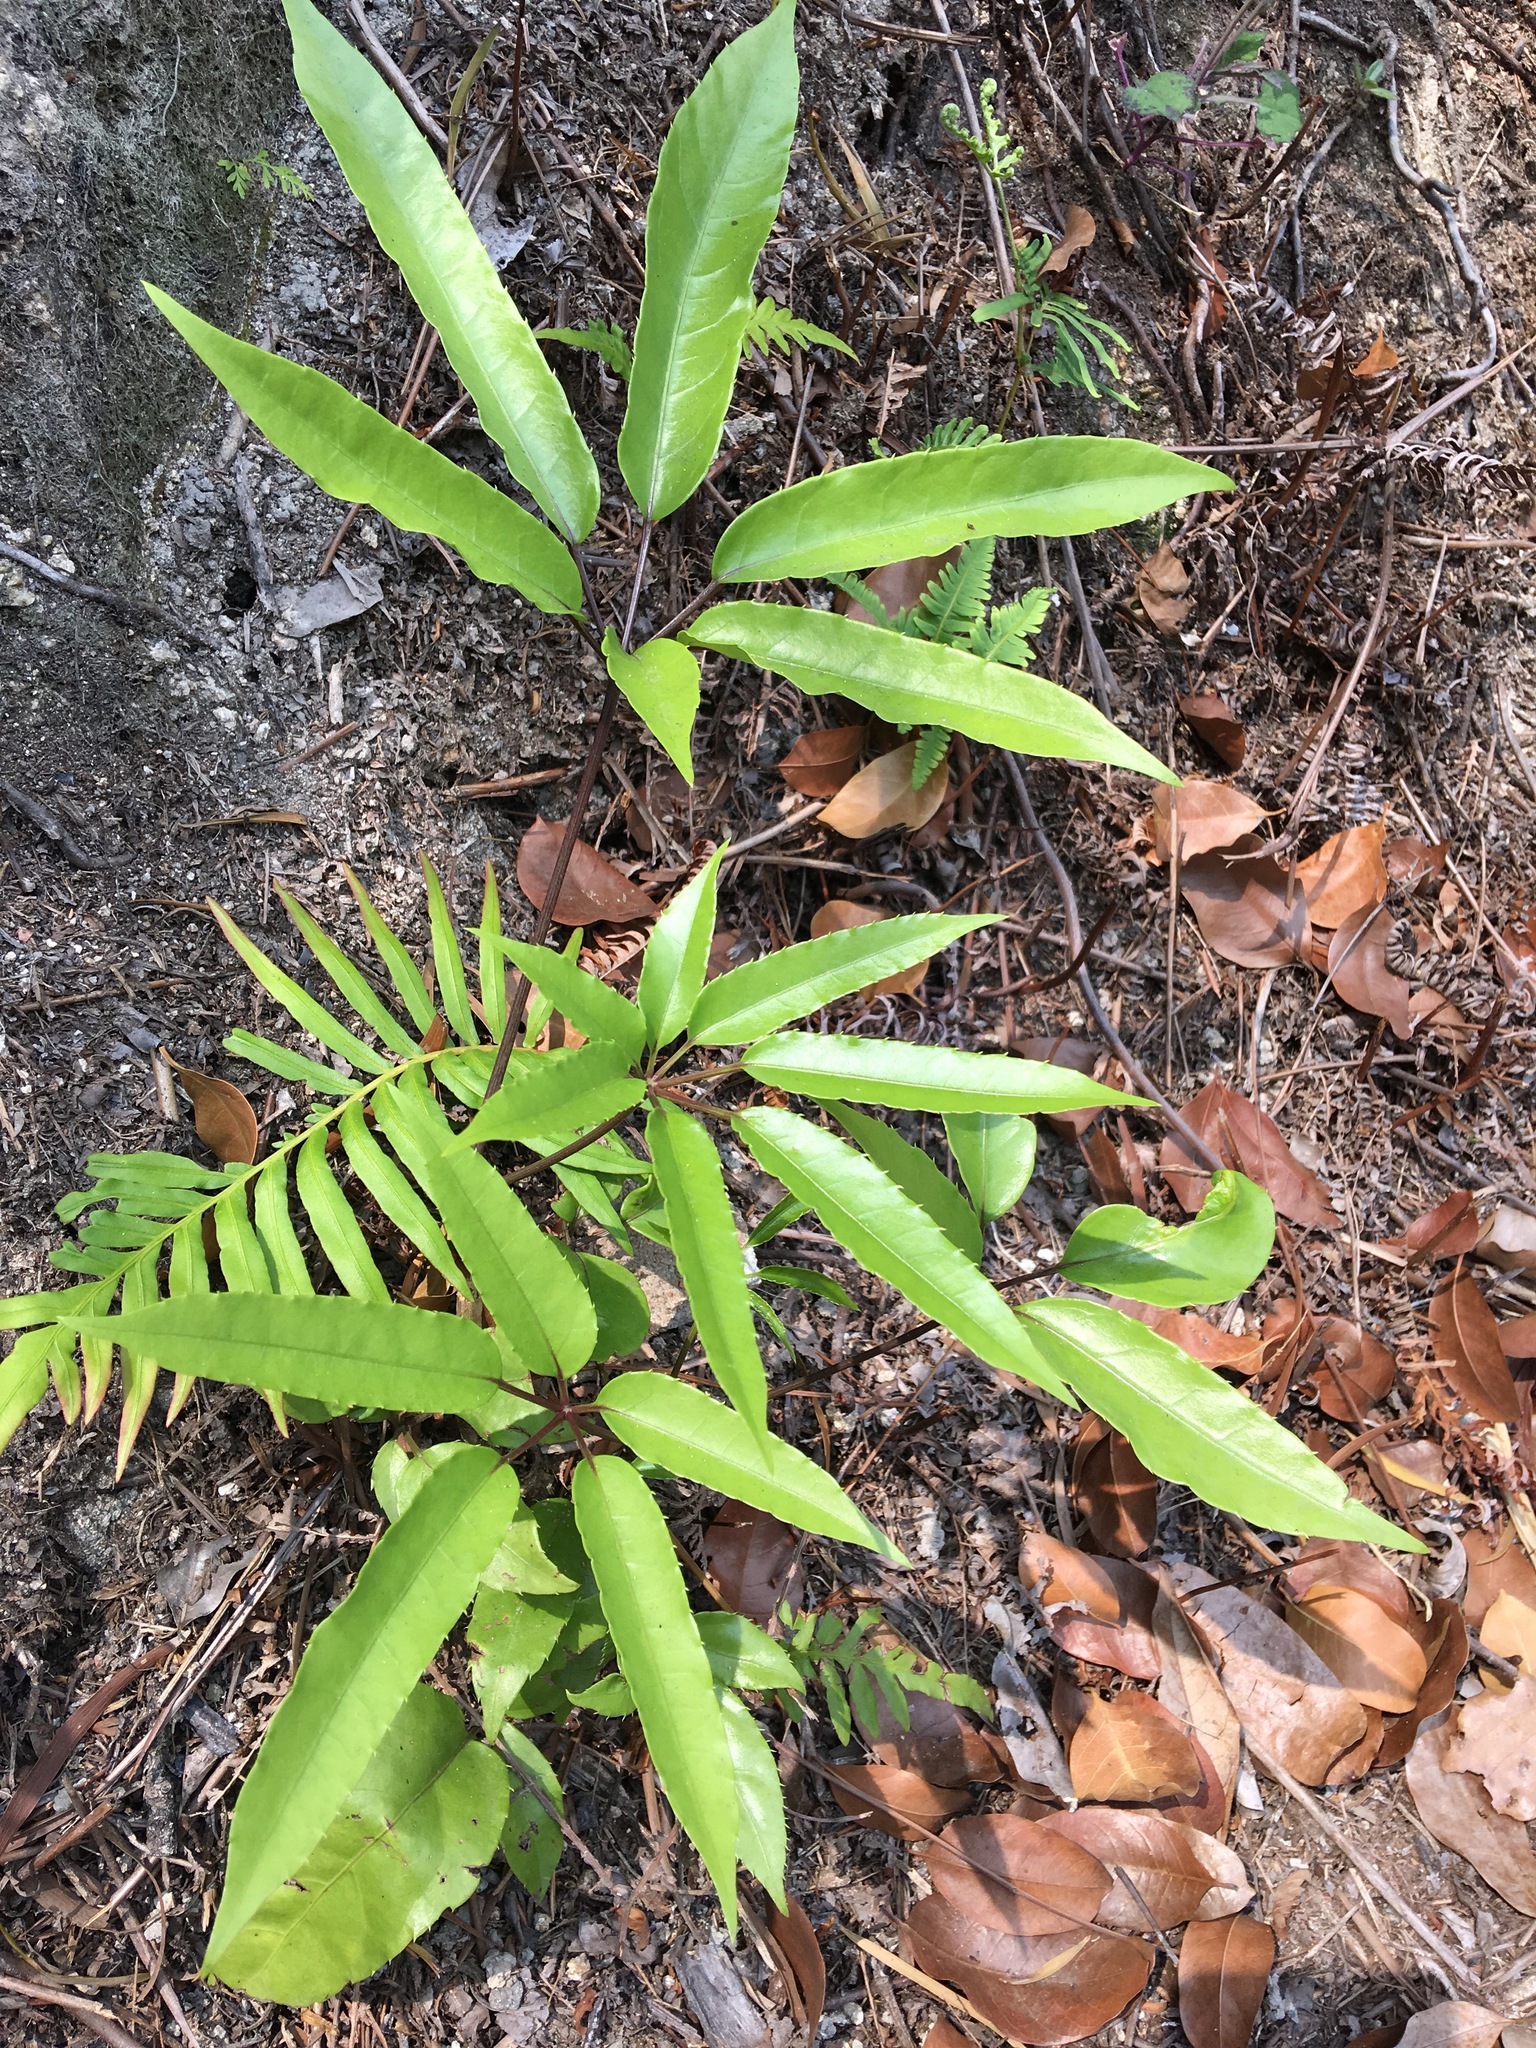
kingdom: Plantae
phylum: Tracheophyta
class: Magnoliopsida
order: Apiales
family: Araliaceae
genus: Heptapleurum
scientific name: Heptapleurum heptaphyllum
